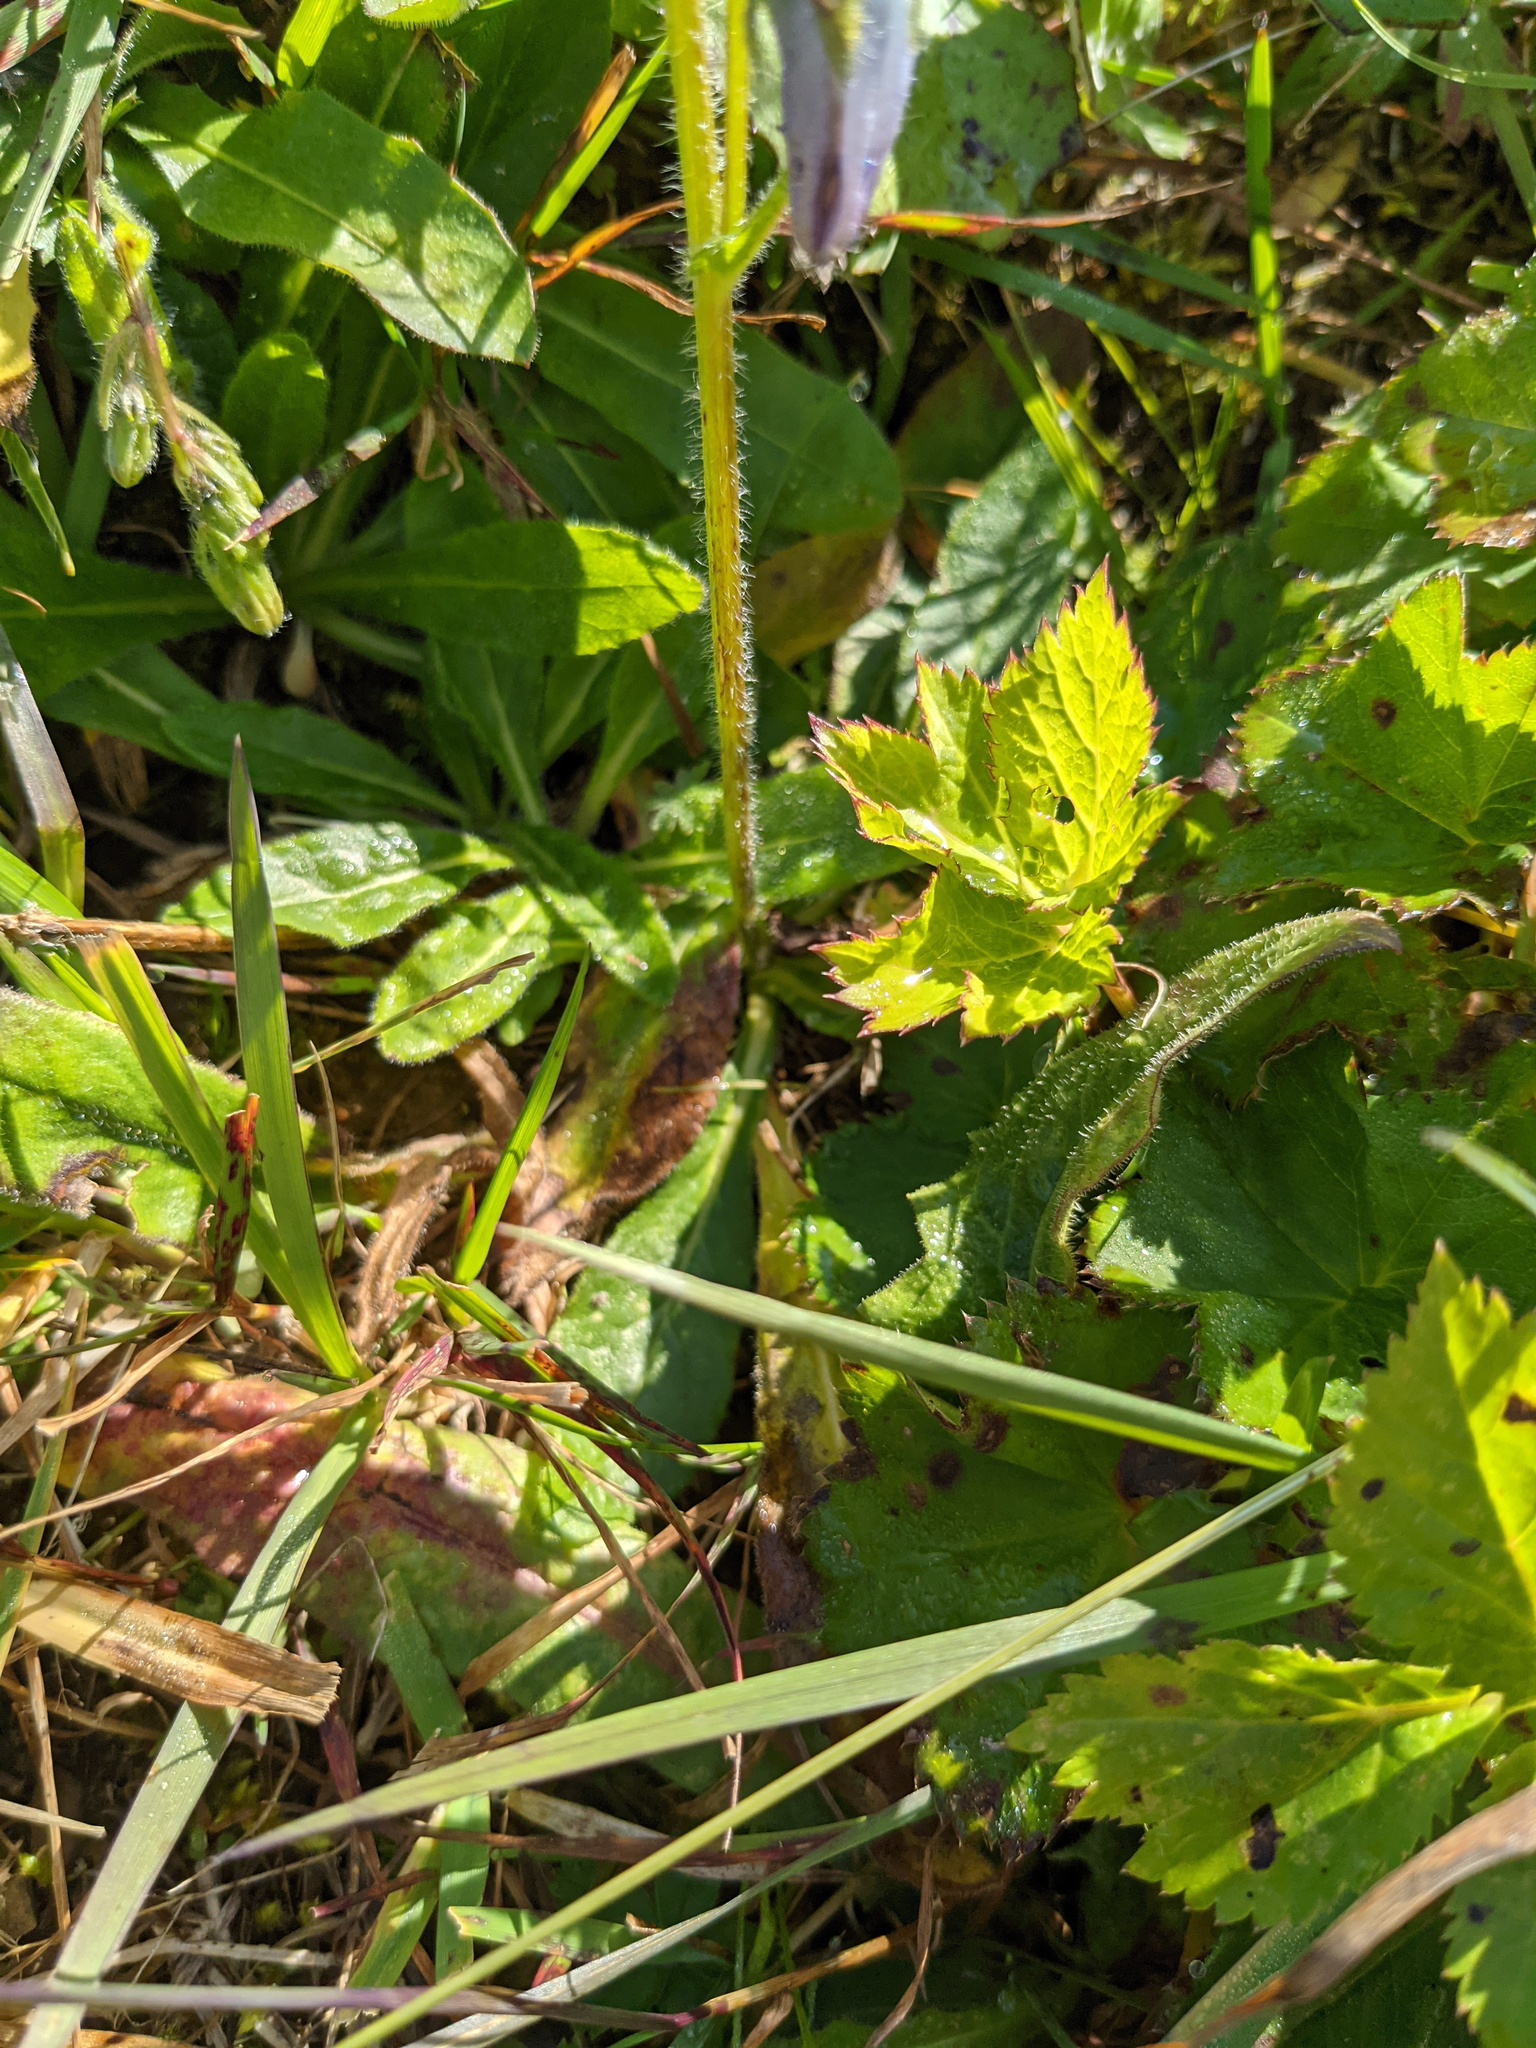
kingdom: Plantae
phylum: Tracheophyta
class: Magnoliopsida
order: Asterales
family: Campanulaceae
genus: Campanula
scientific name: Campanula barbata
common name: Bearded bellflower
